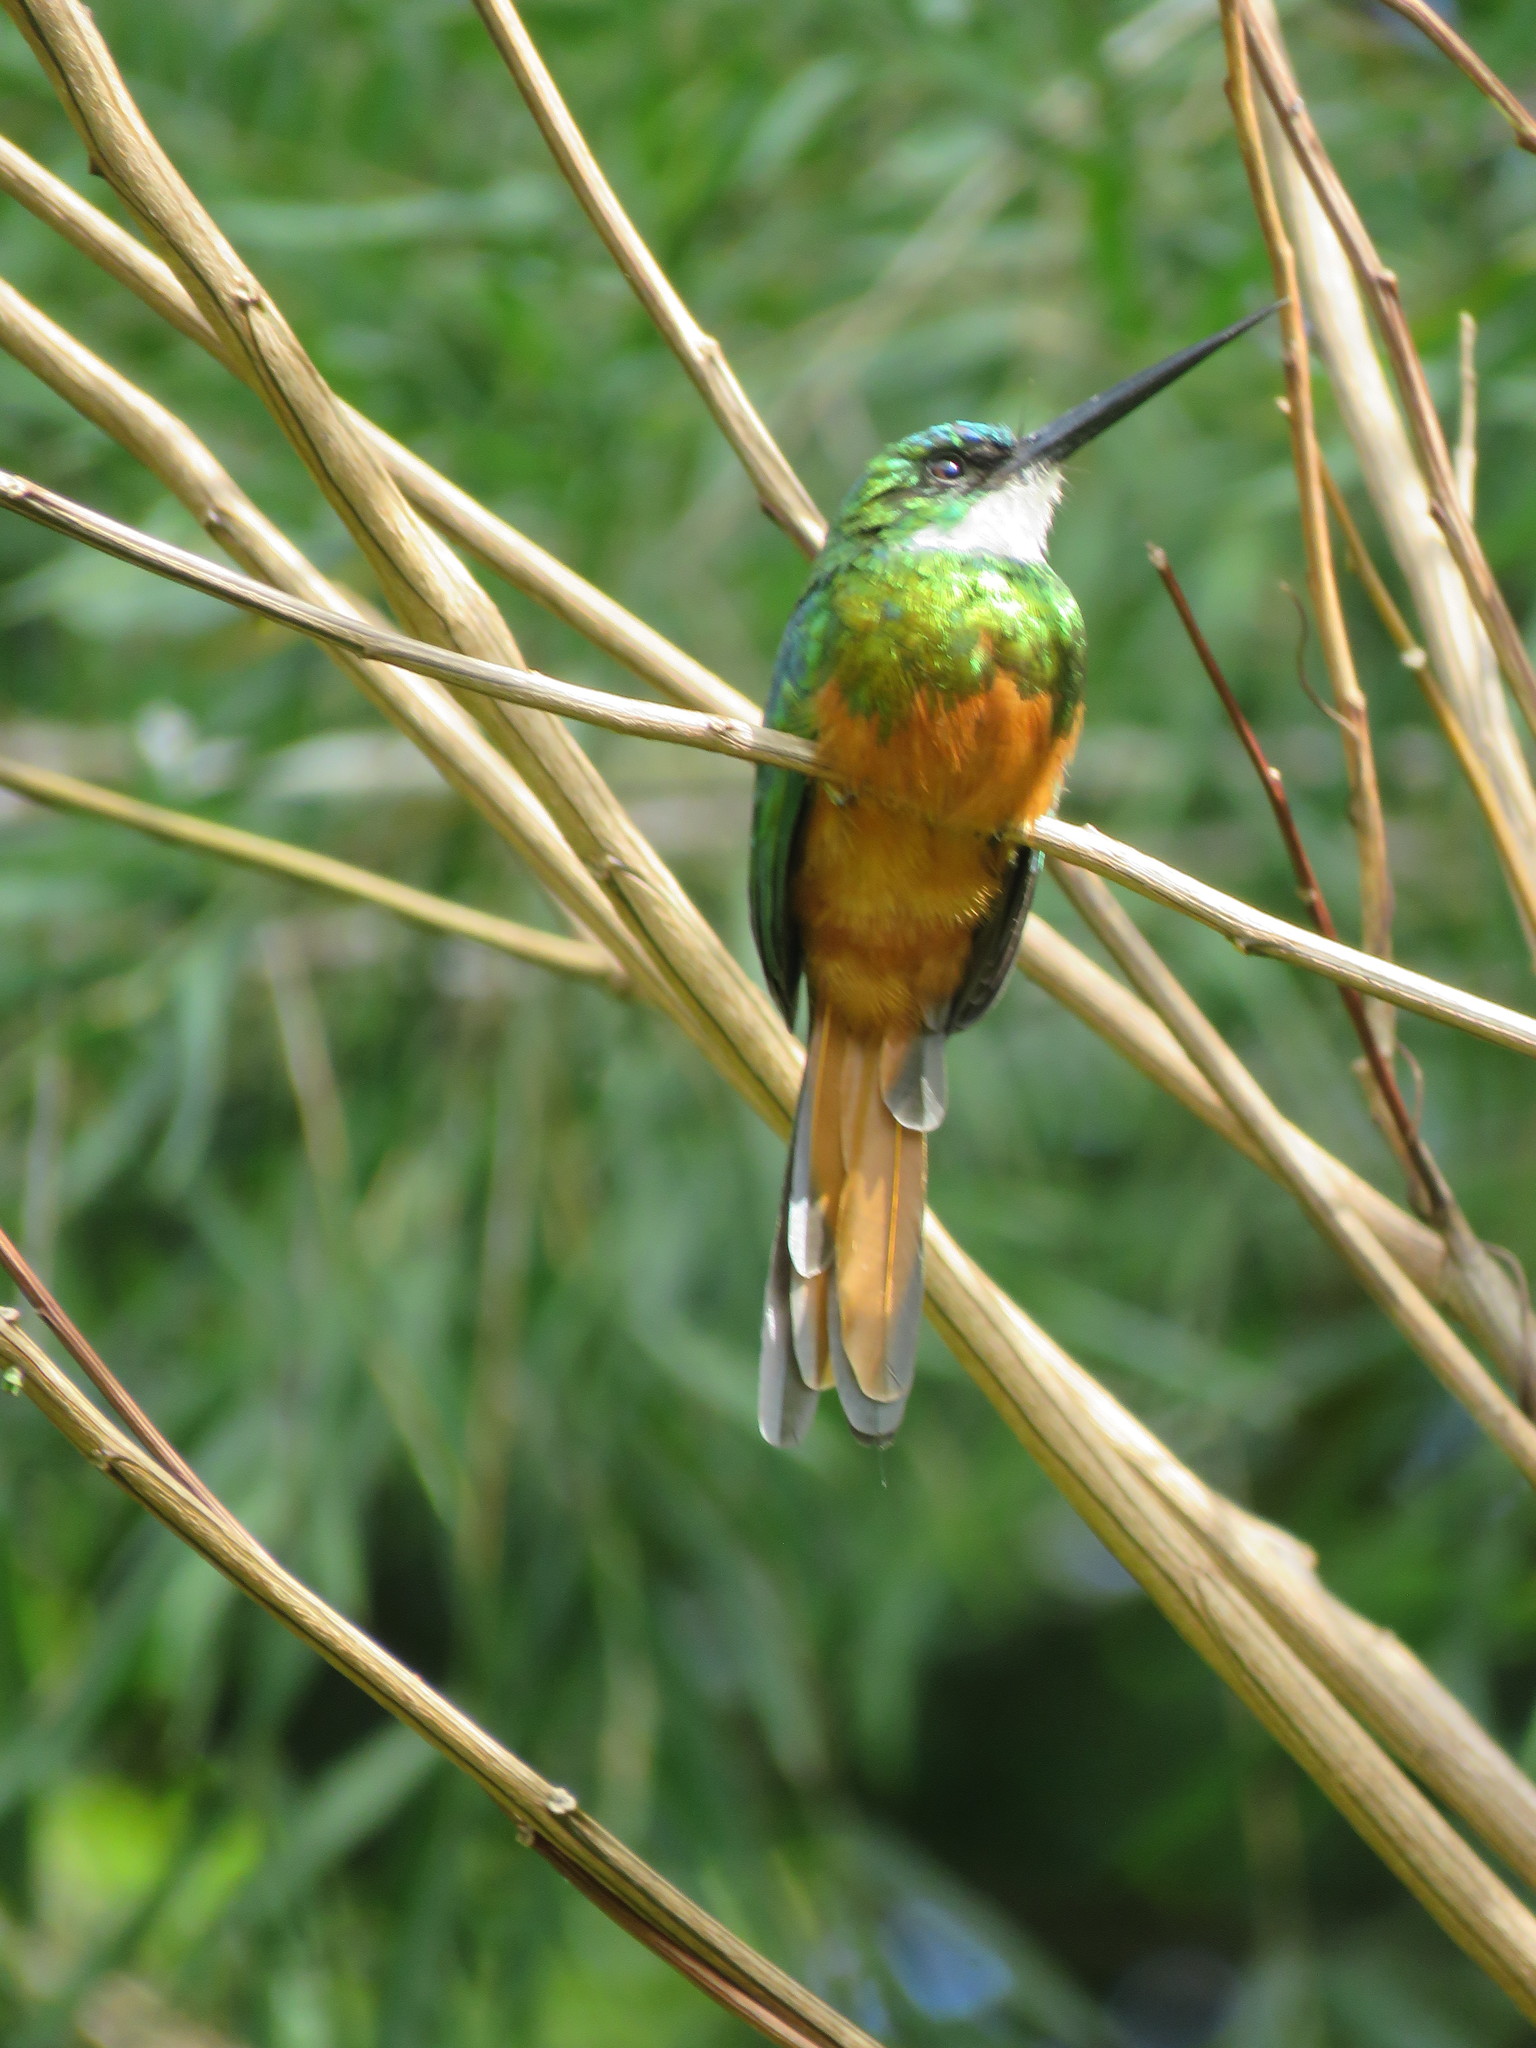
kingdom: Animalia
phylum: Chordata
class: Aves
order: Piciformes
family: Galbulidae
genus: Galbula
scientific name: Galbula ruficauda
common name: Rufous-tailed jacamar
